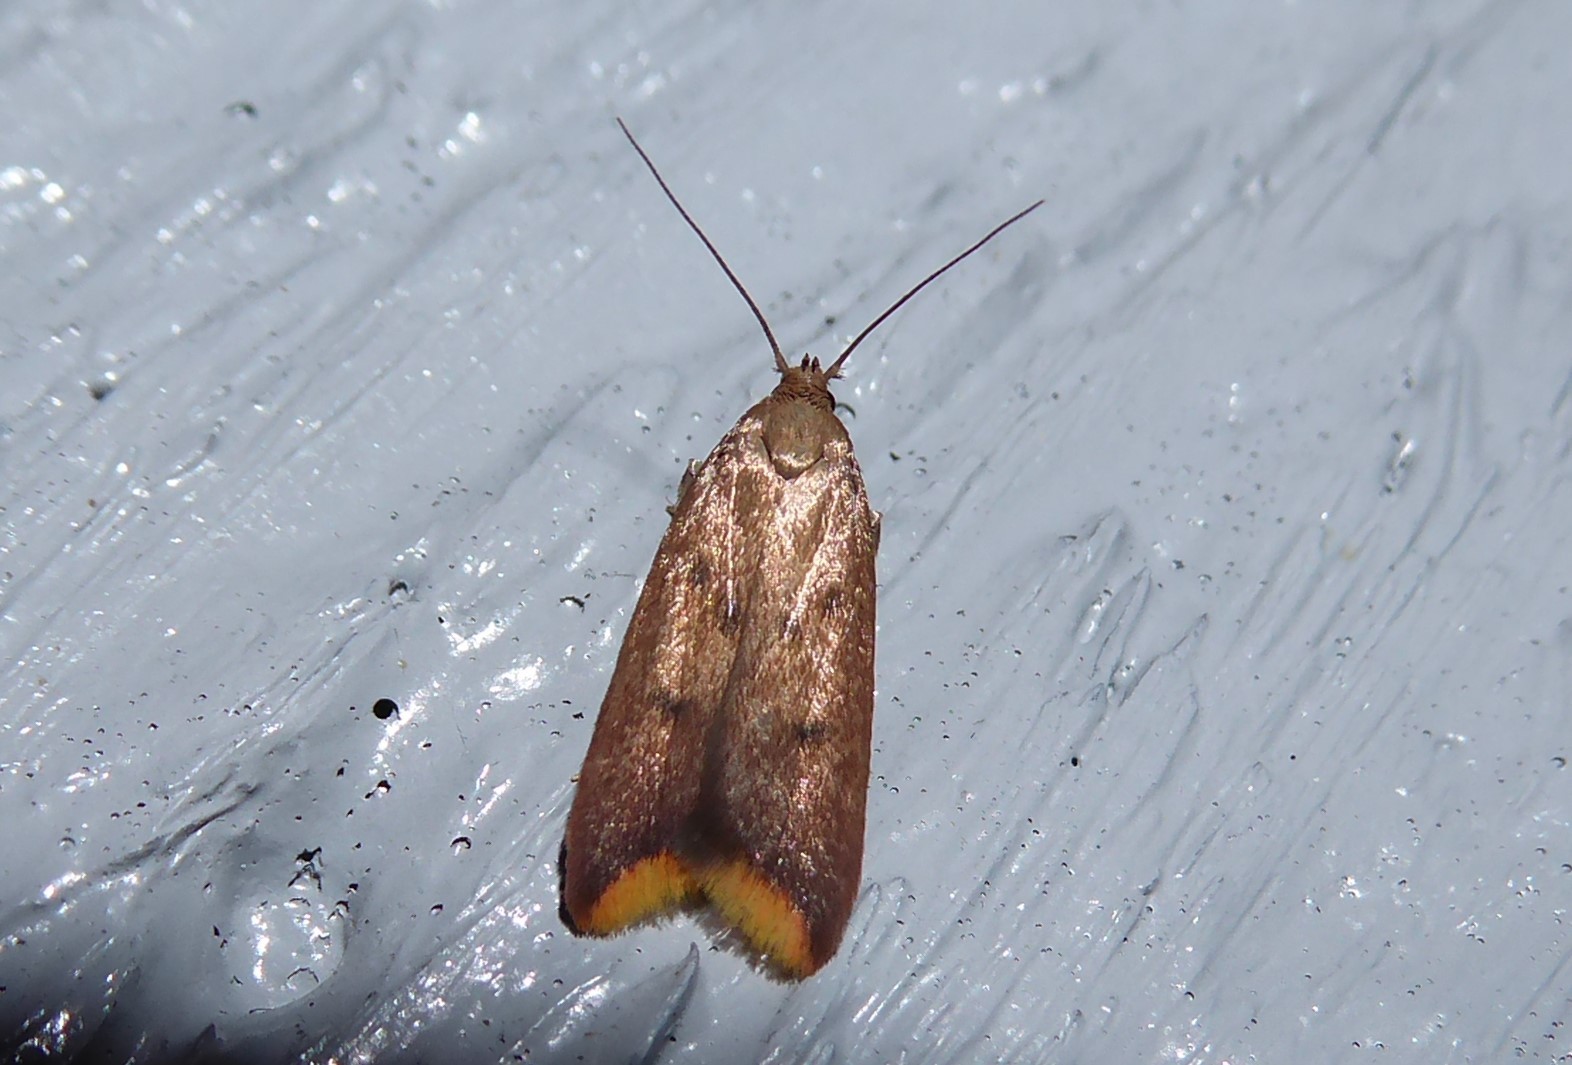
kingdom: Animalia
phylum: Arthropoda
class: Insecta
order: Lepidoptera
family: Oecophoridae
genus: Tachystola
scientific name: Tachystola acroxantha
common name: Ruddy streak
